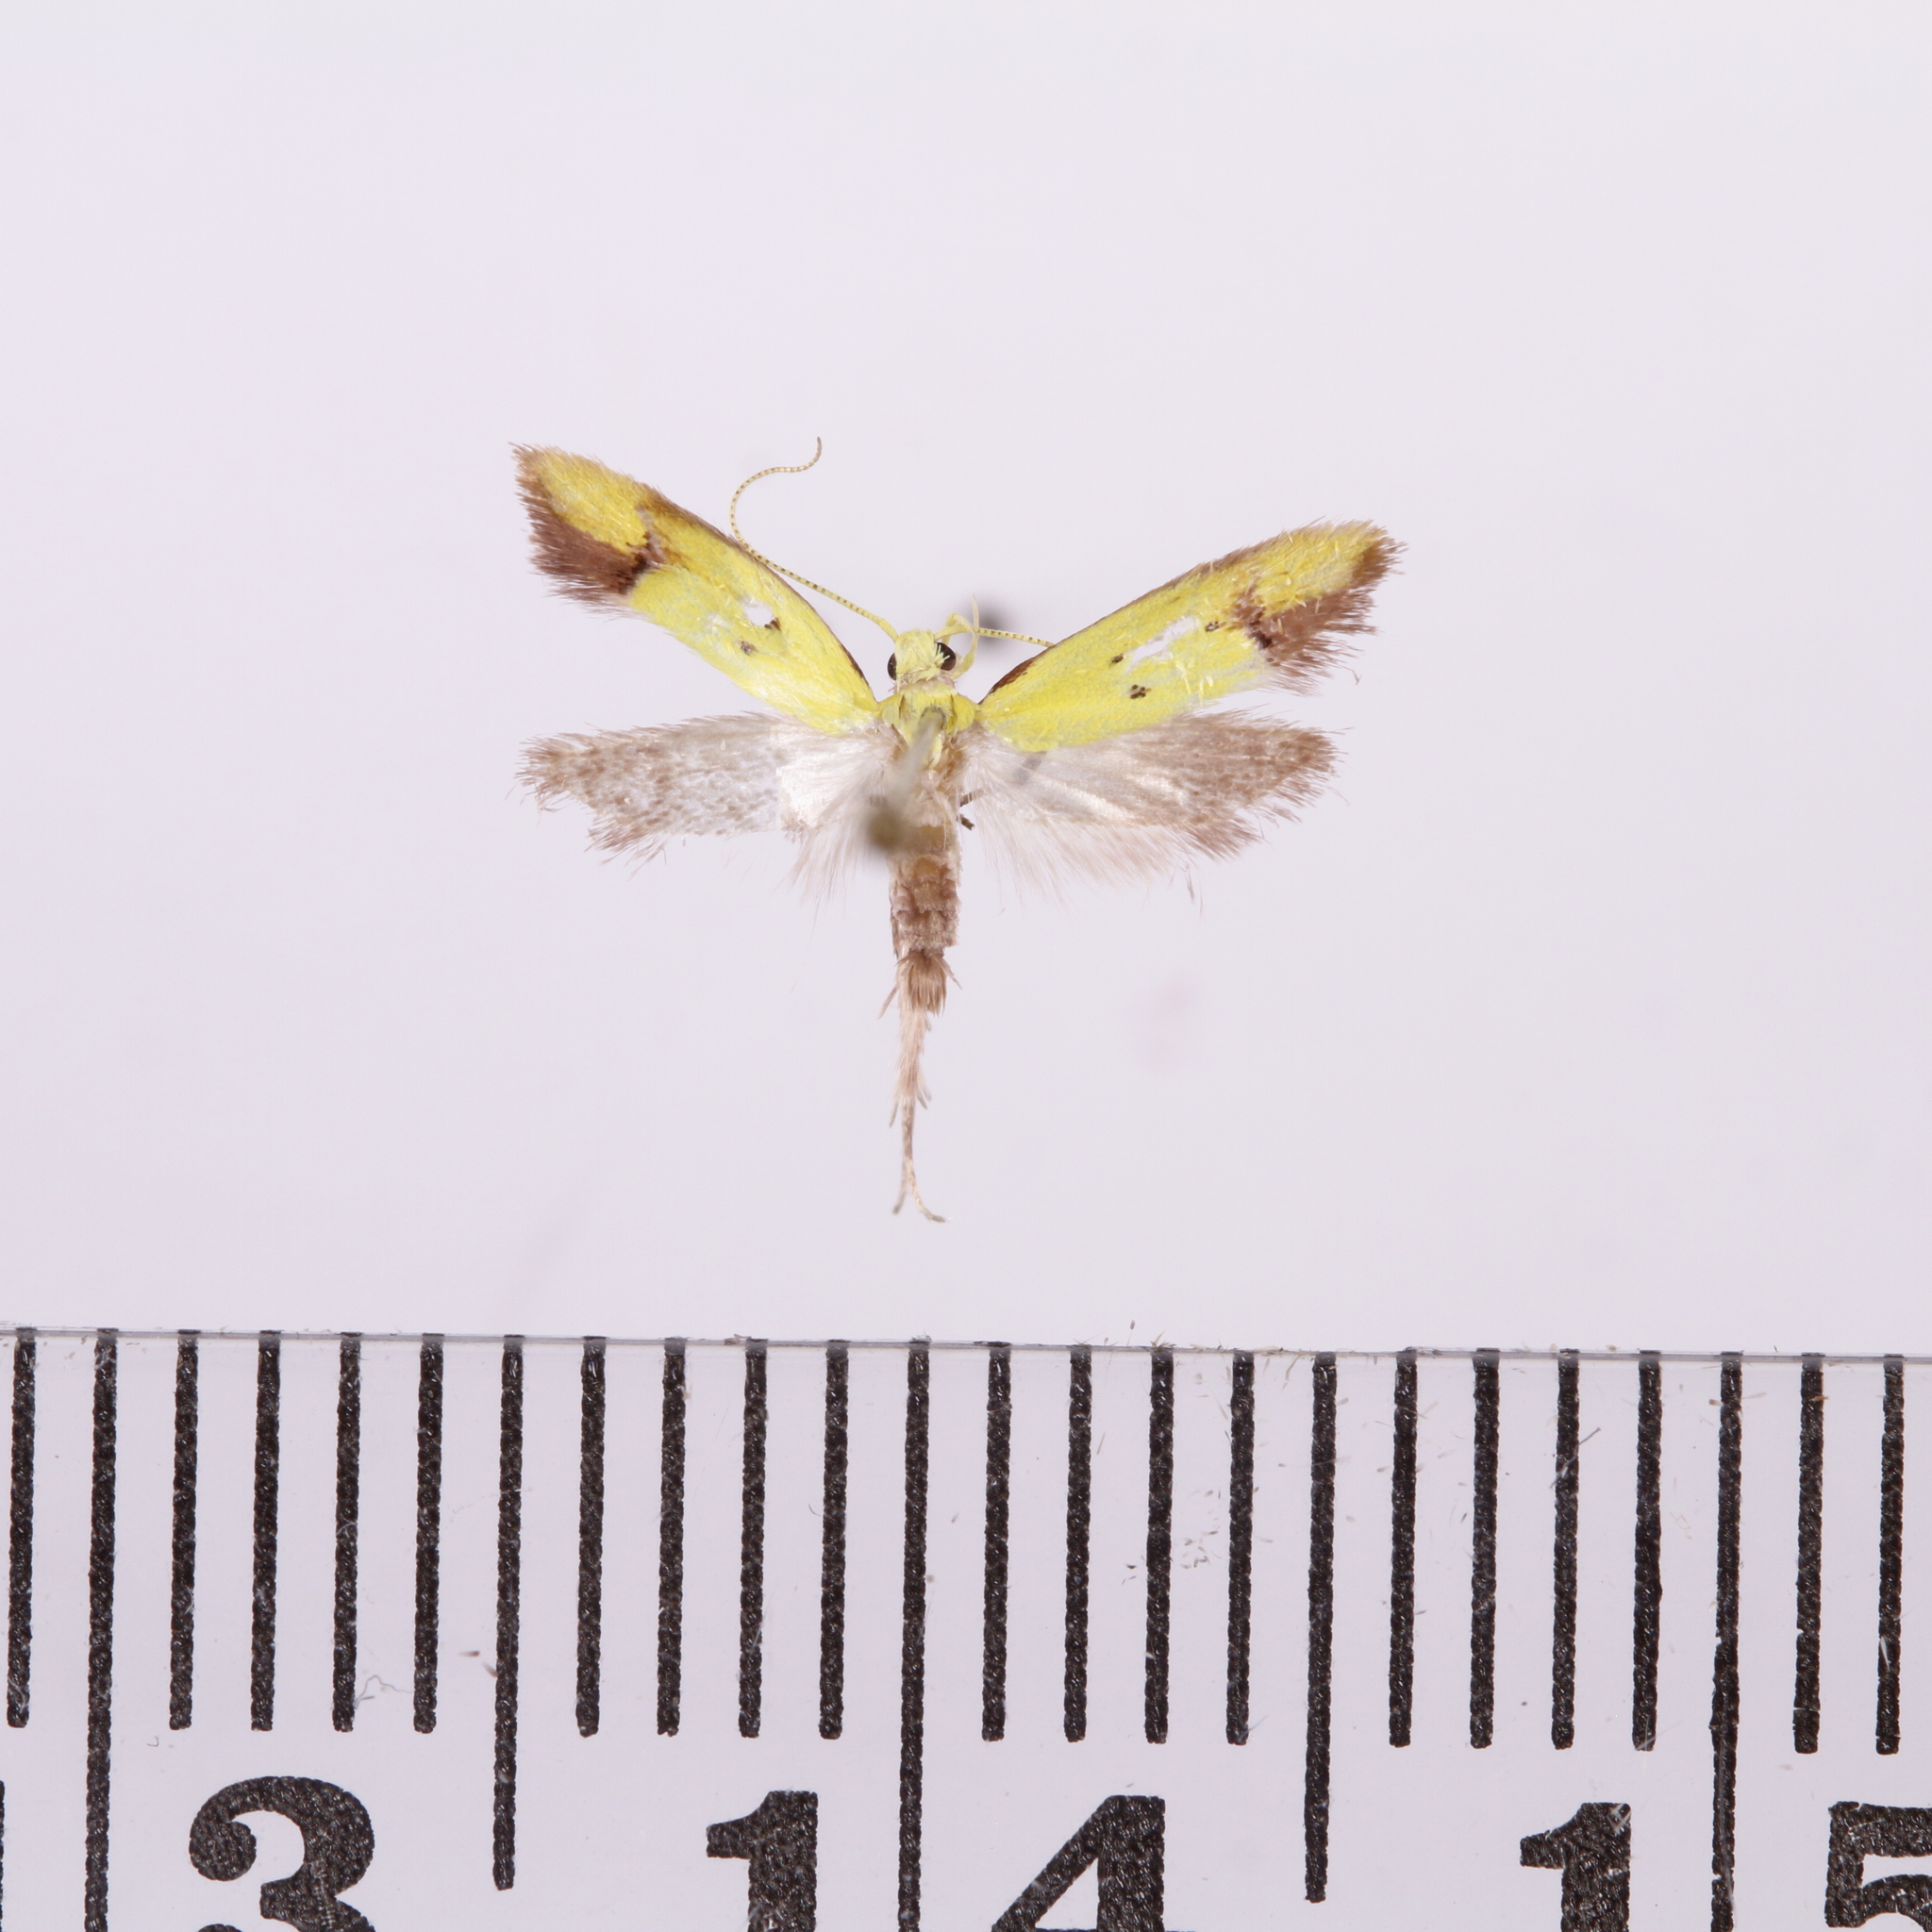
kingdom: Animalia
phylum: Arthropoda
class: Insecta
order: Lepidoptera
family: Oecophoridae
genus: Gymnobathra
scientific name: Gymnobathra flavidella
